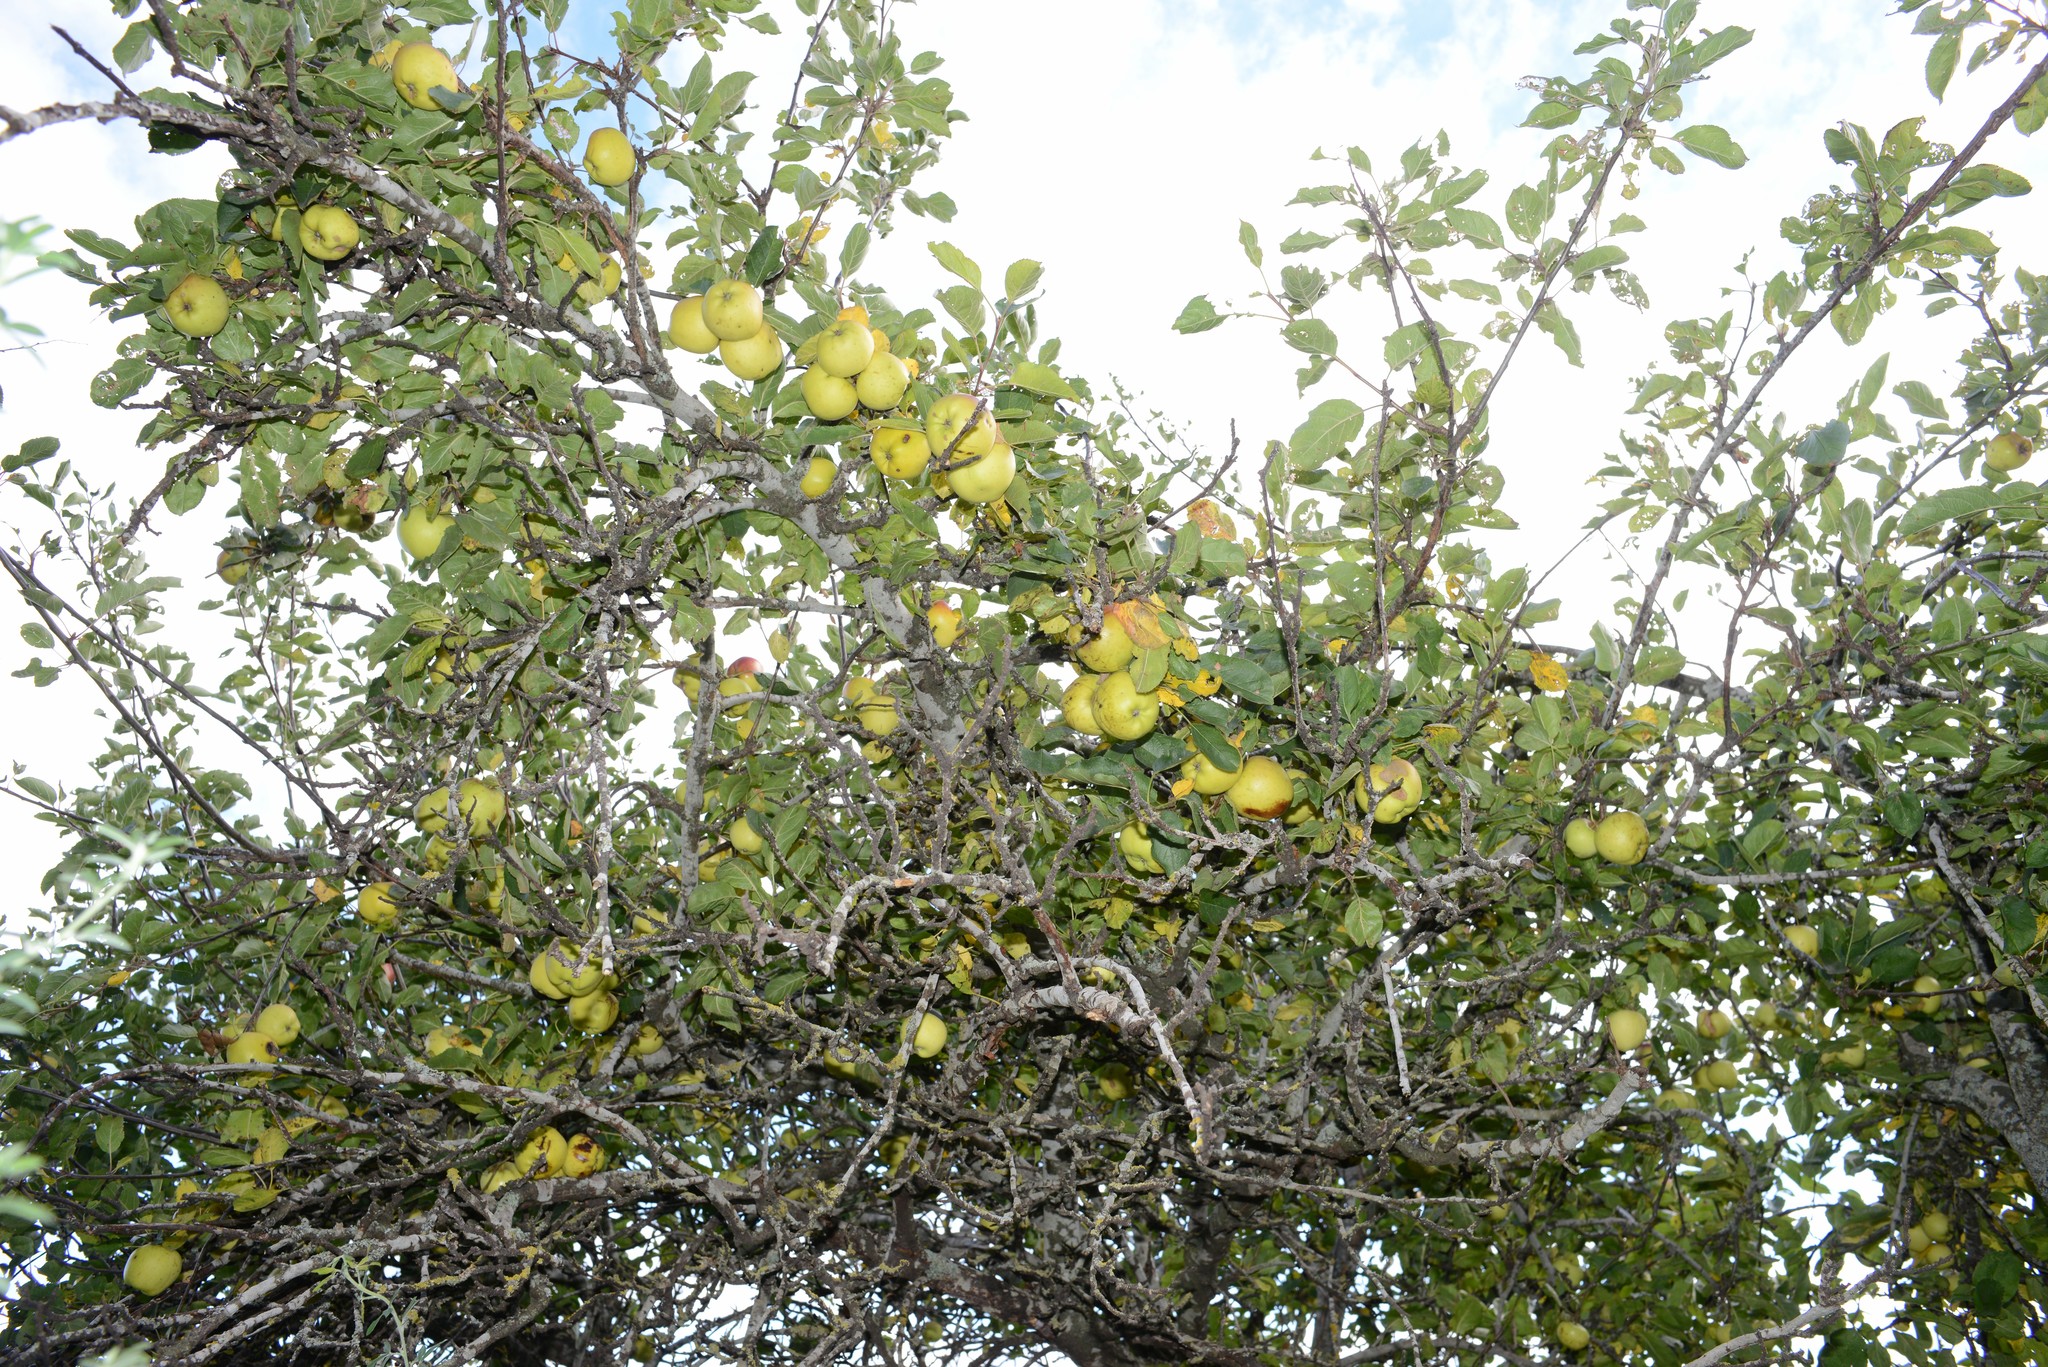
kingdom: Plantae
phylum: Tracheophyta
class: Magnoliopsida
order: Rosales
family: Rosaceae
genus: Malus
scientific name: Malus domestica
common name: Apple
